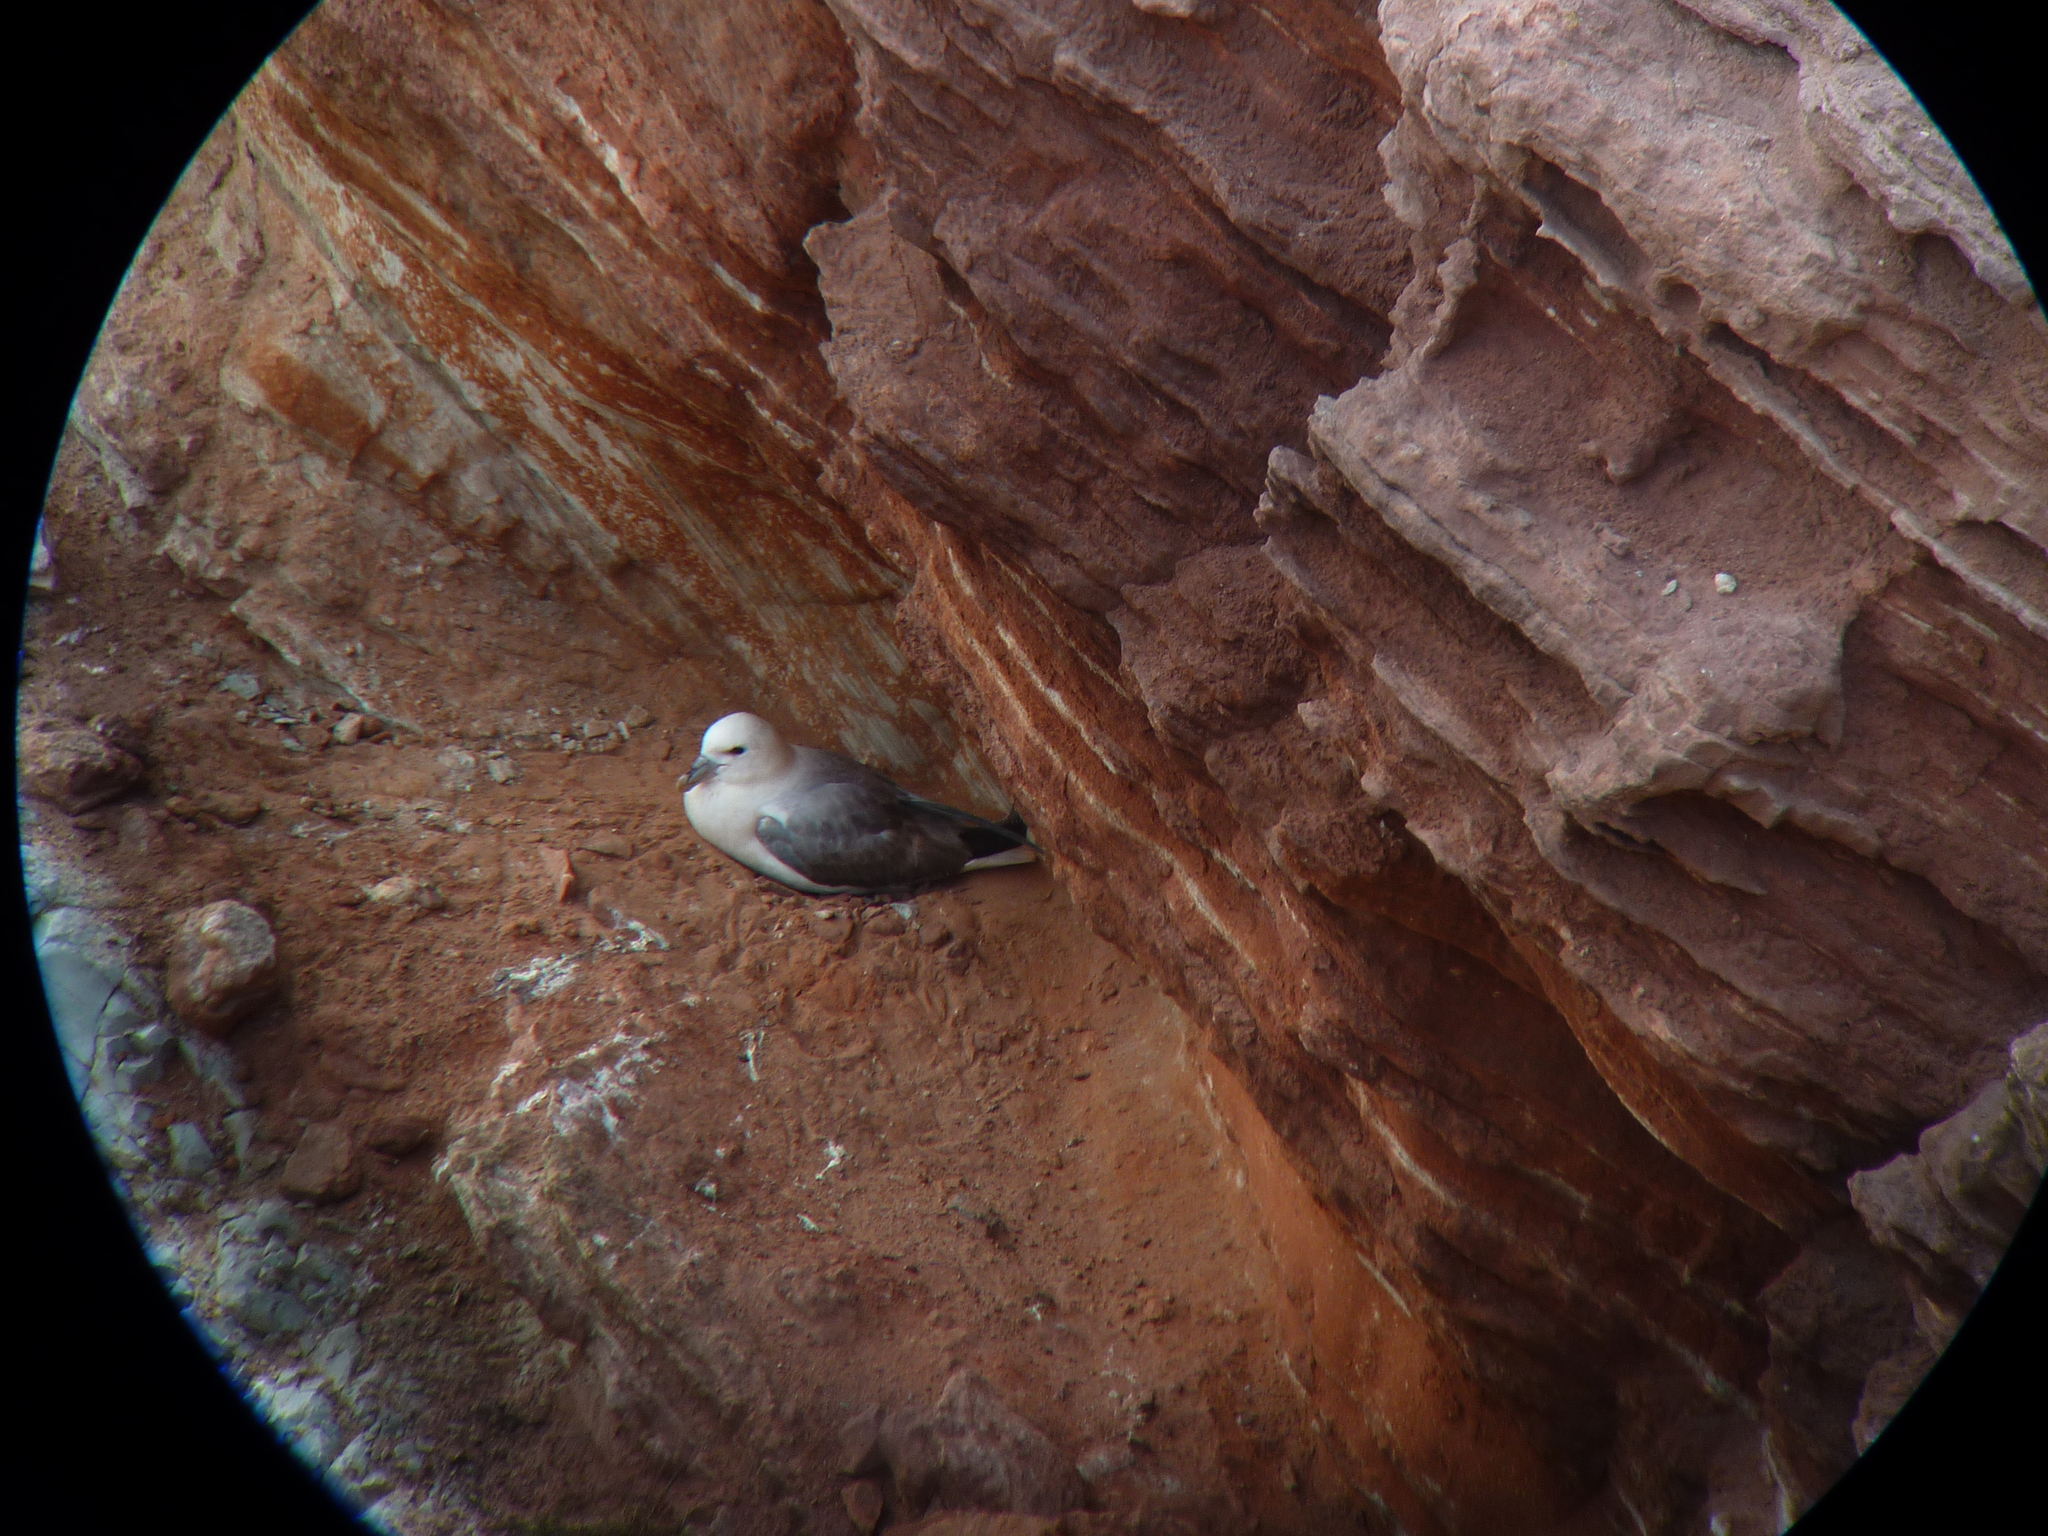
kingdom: Animalia
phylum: Chordata
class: Aves
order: Procellariiformes
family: Procellariidae
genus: Fulmarus
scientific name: Fulmarus glacialis
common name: Northern fulmar
